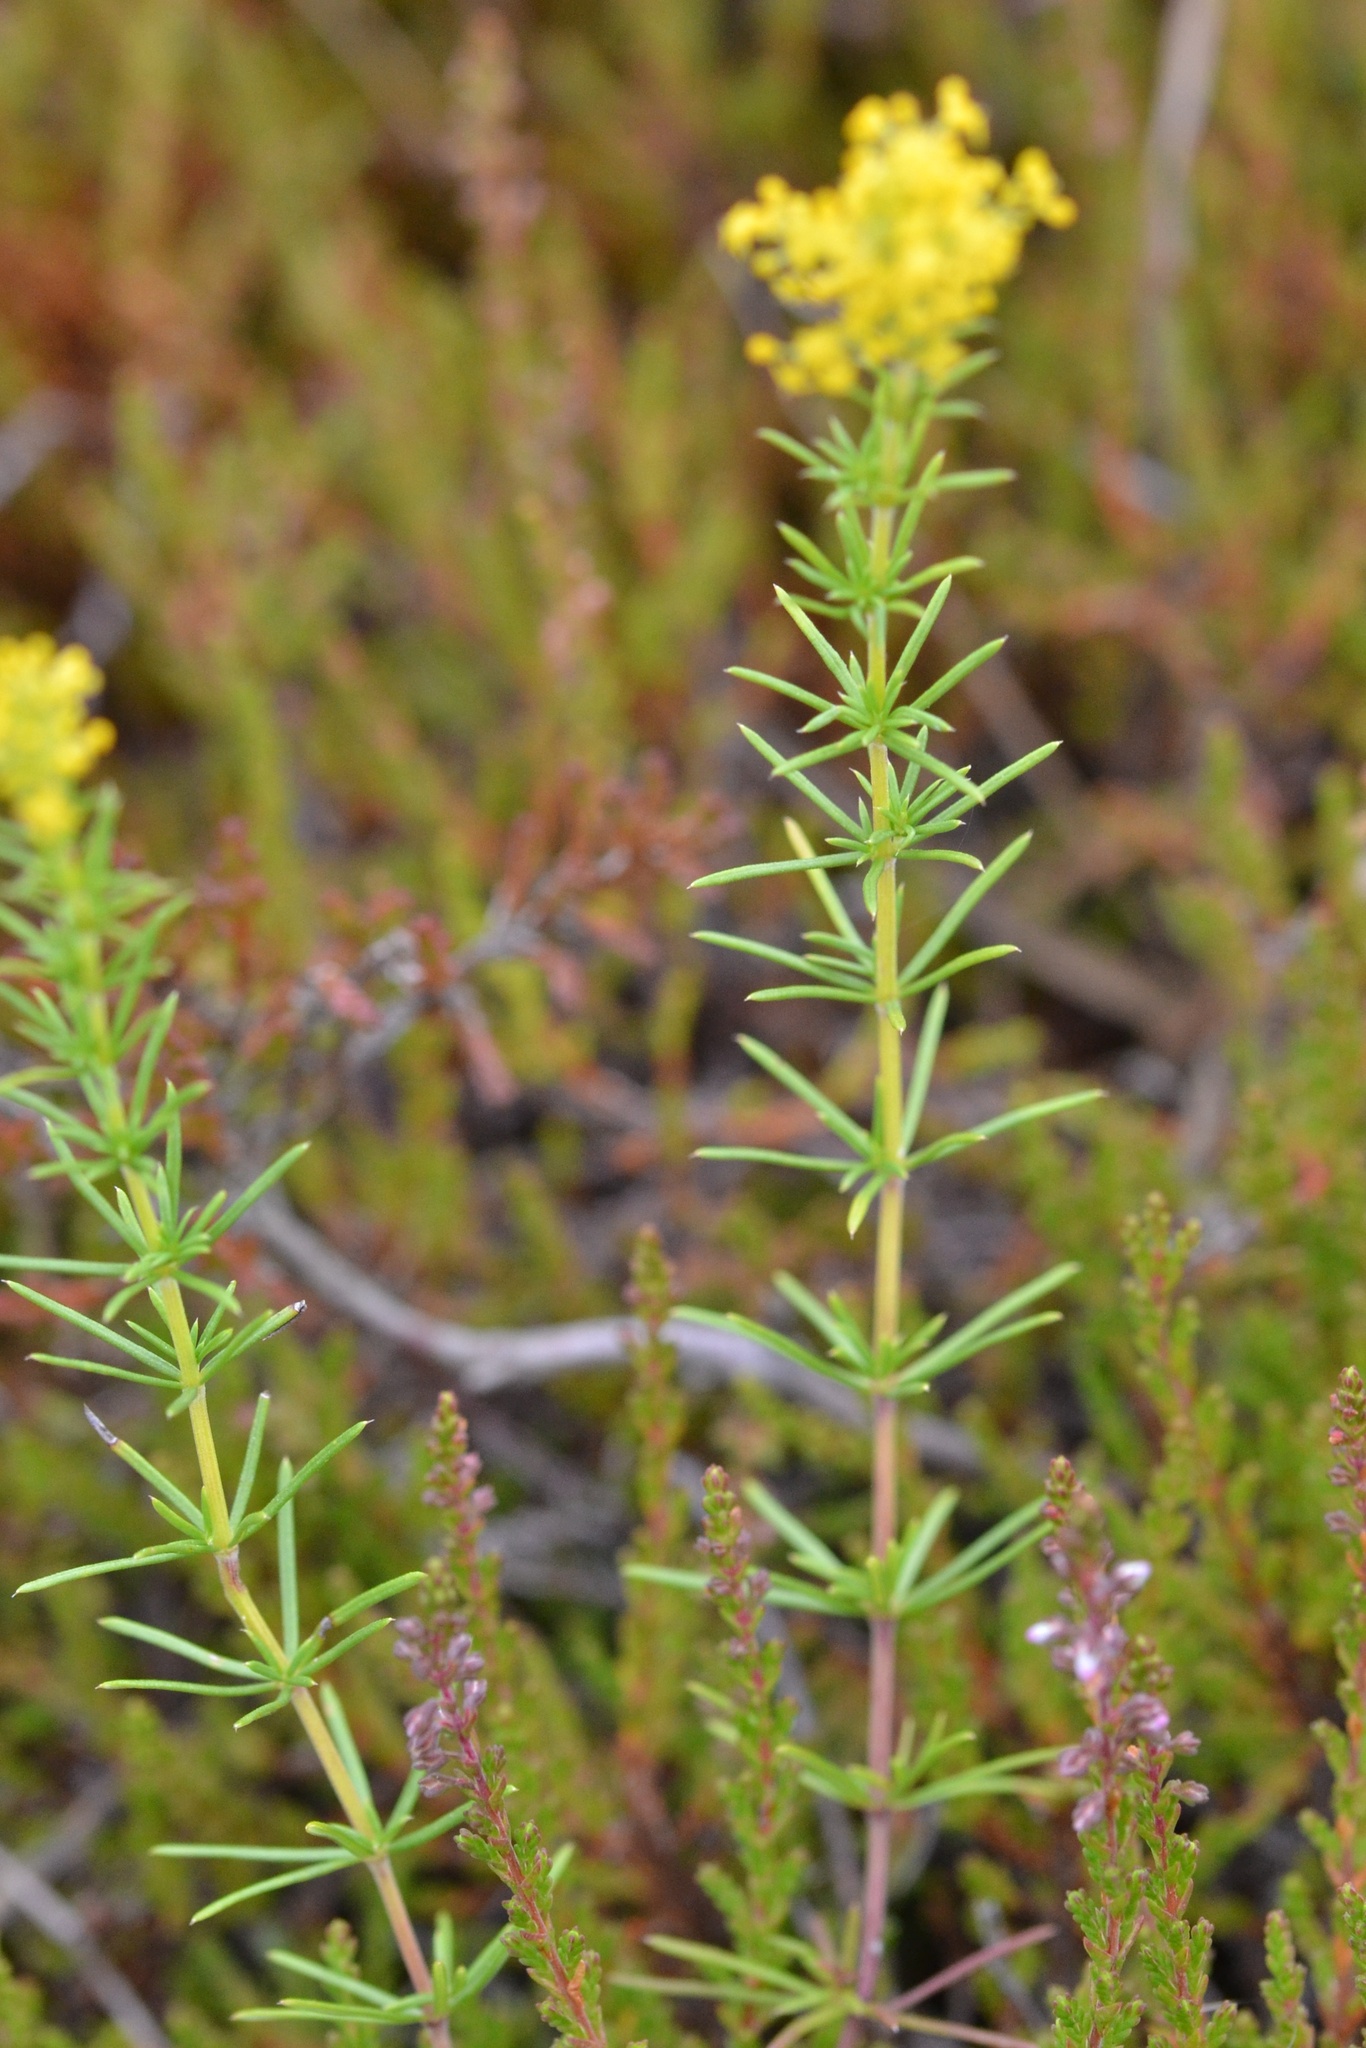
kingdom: Plantae
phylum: Tracheophyta
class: Magnoliopsida
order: Gentianales
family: Rubiaceae
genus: Galium
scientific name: Galium verum
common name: Lady's bedstraw
